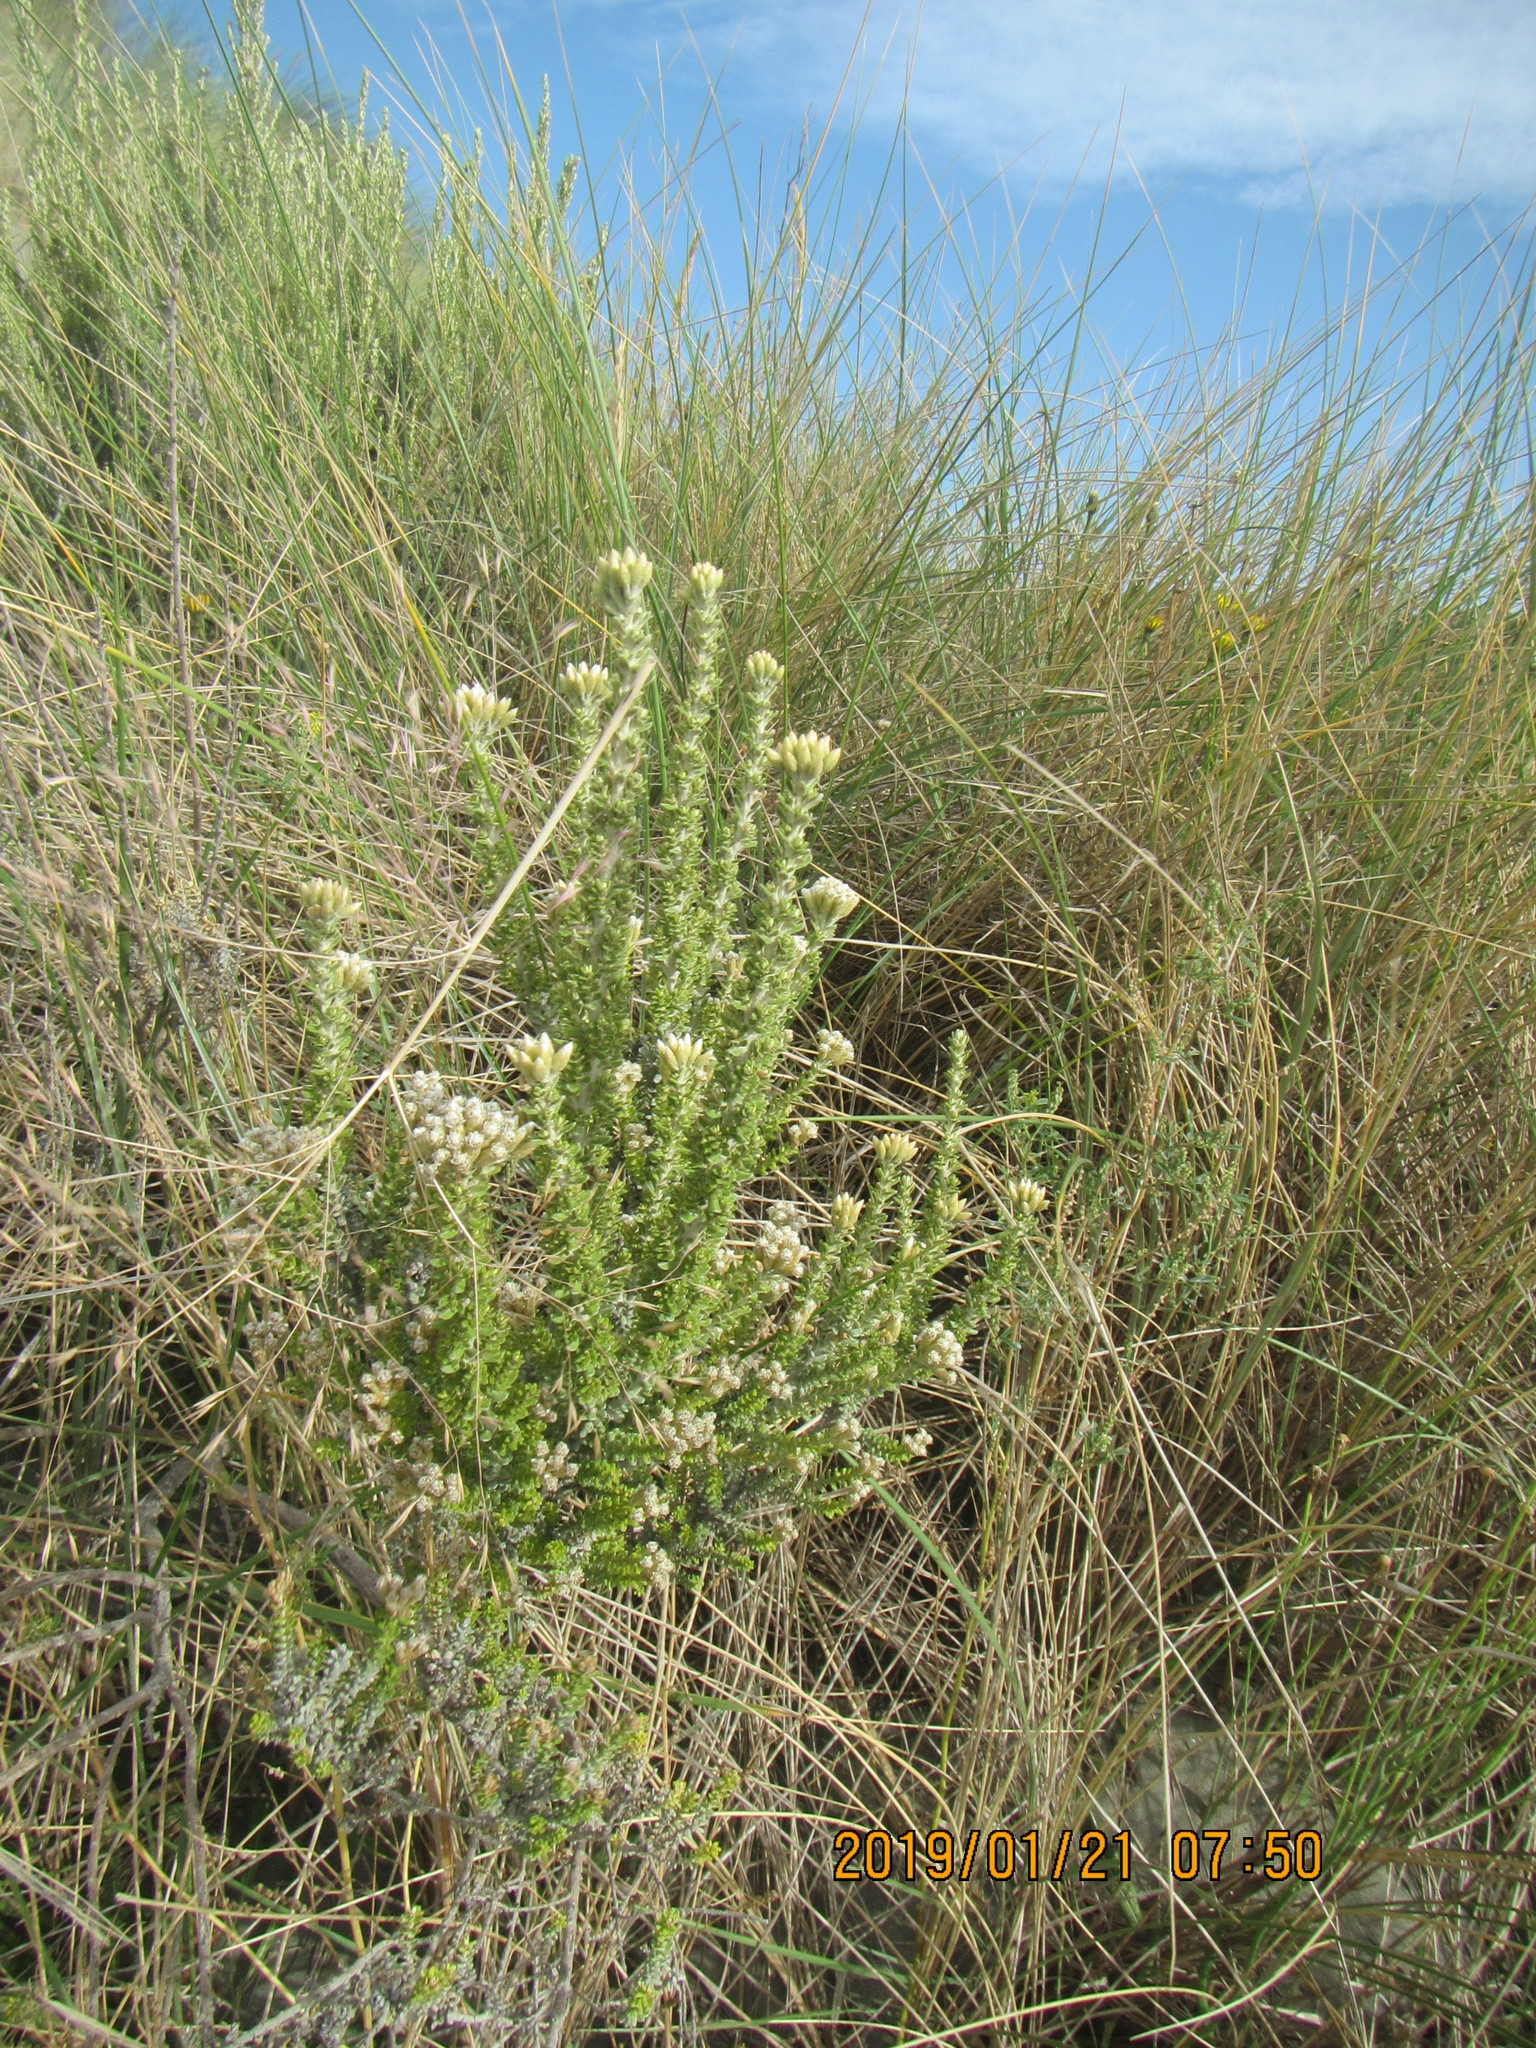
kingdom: Plantae
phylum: Tracheophyta
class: Magnoliopsida
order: Asterales
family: Asteraceae
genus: Ozothamnus
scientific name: Ozothamnus leptophyllus
